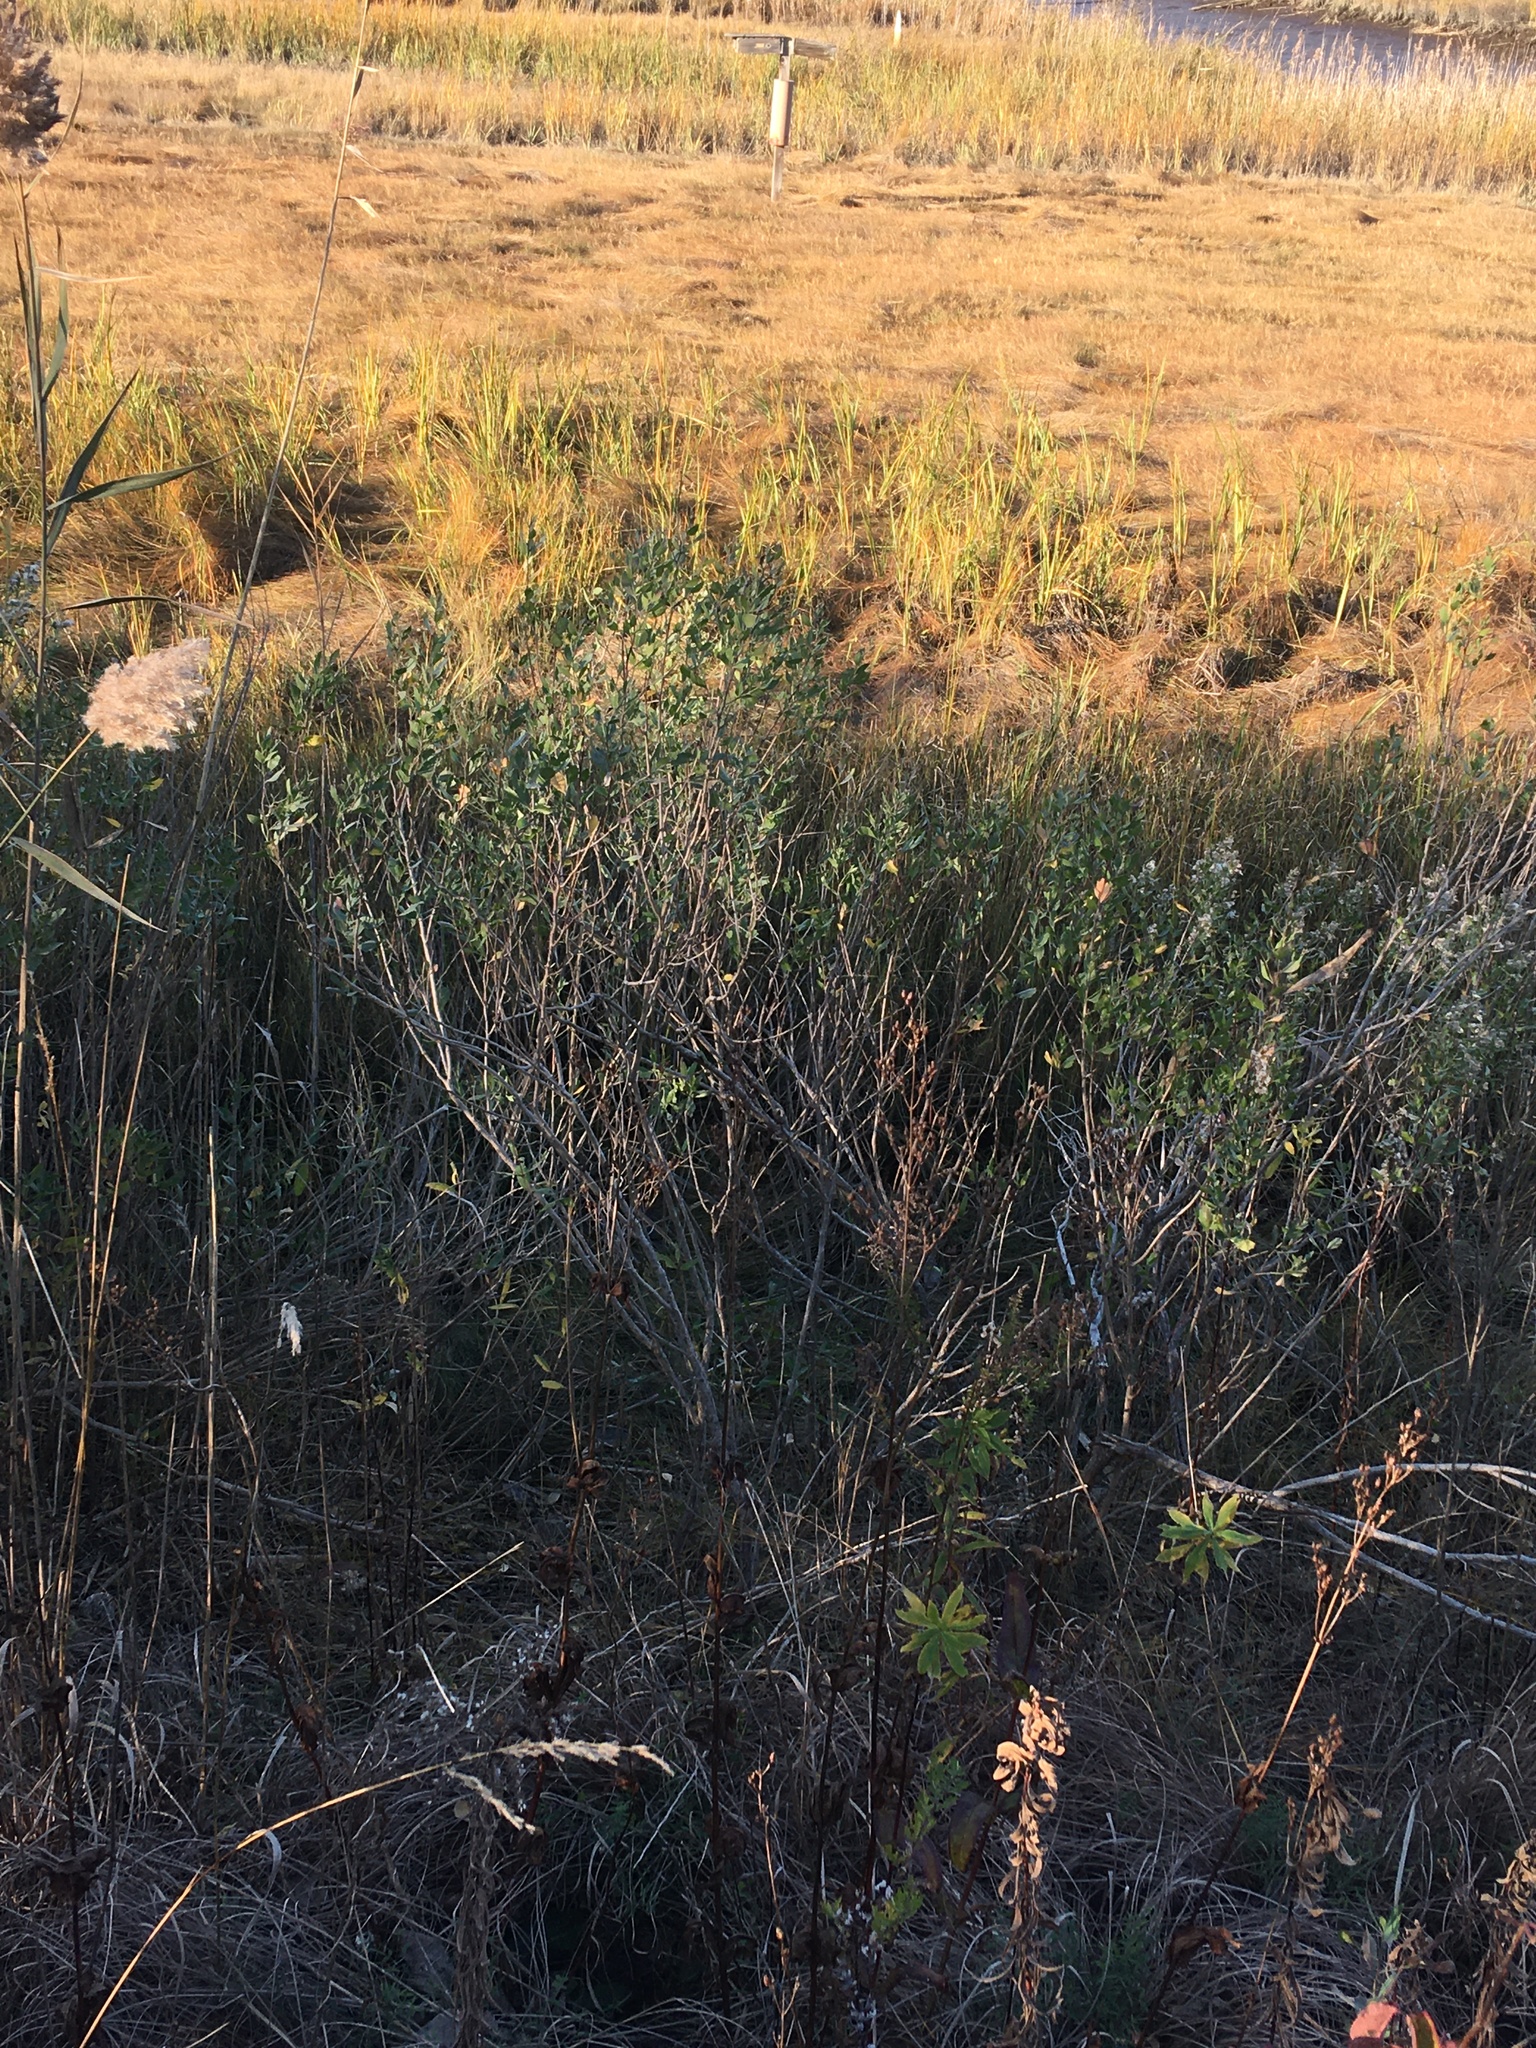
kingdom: Plantae
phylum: Tracheophyta
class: Magnoliopsida
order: Asterales
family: Asteraceae
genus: Baccharis
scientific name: Baccharis halimifolia
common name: Eastern baccharis
